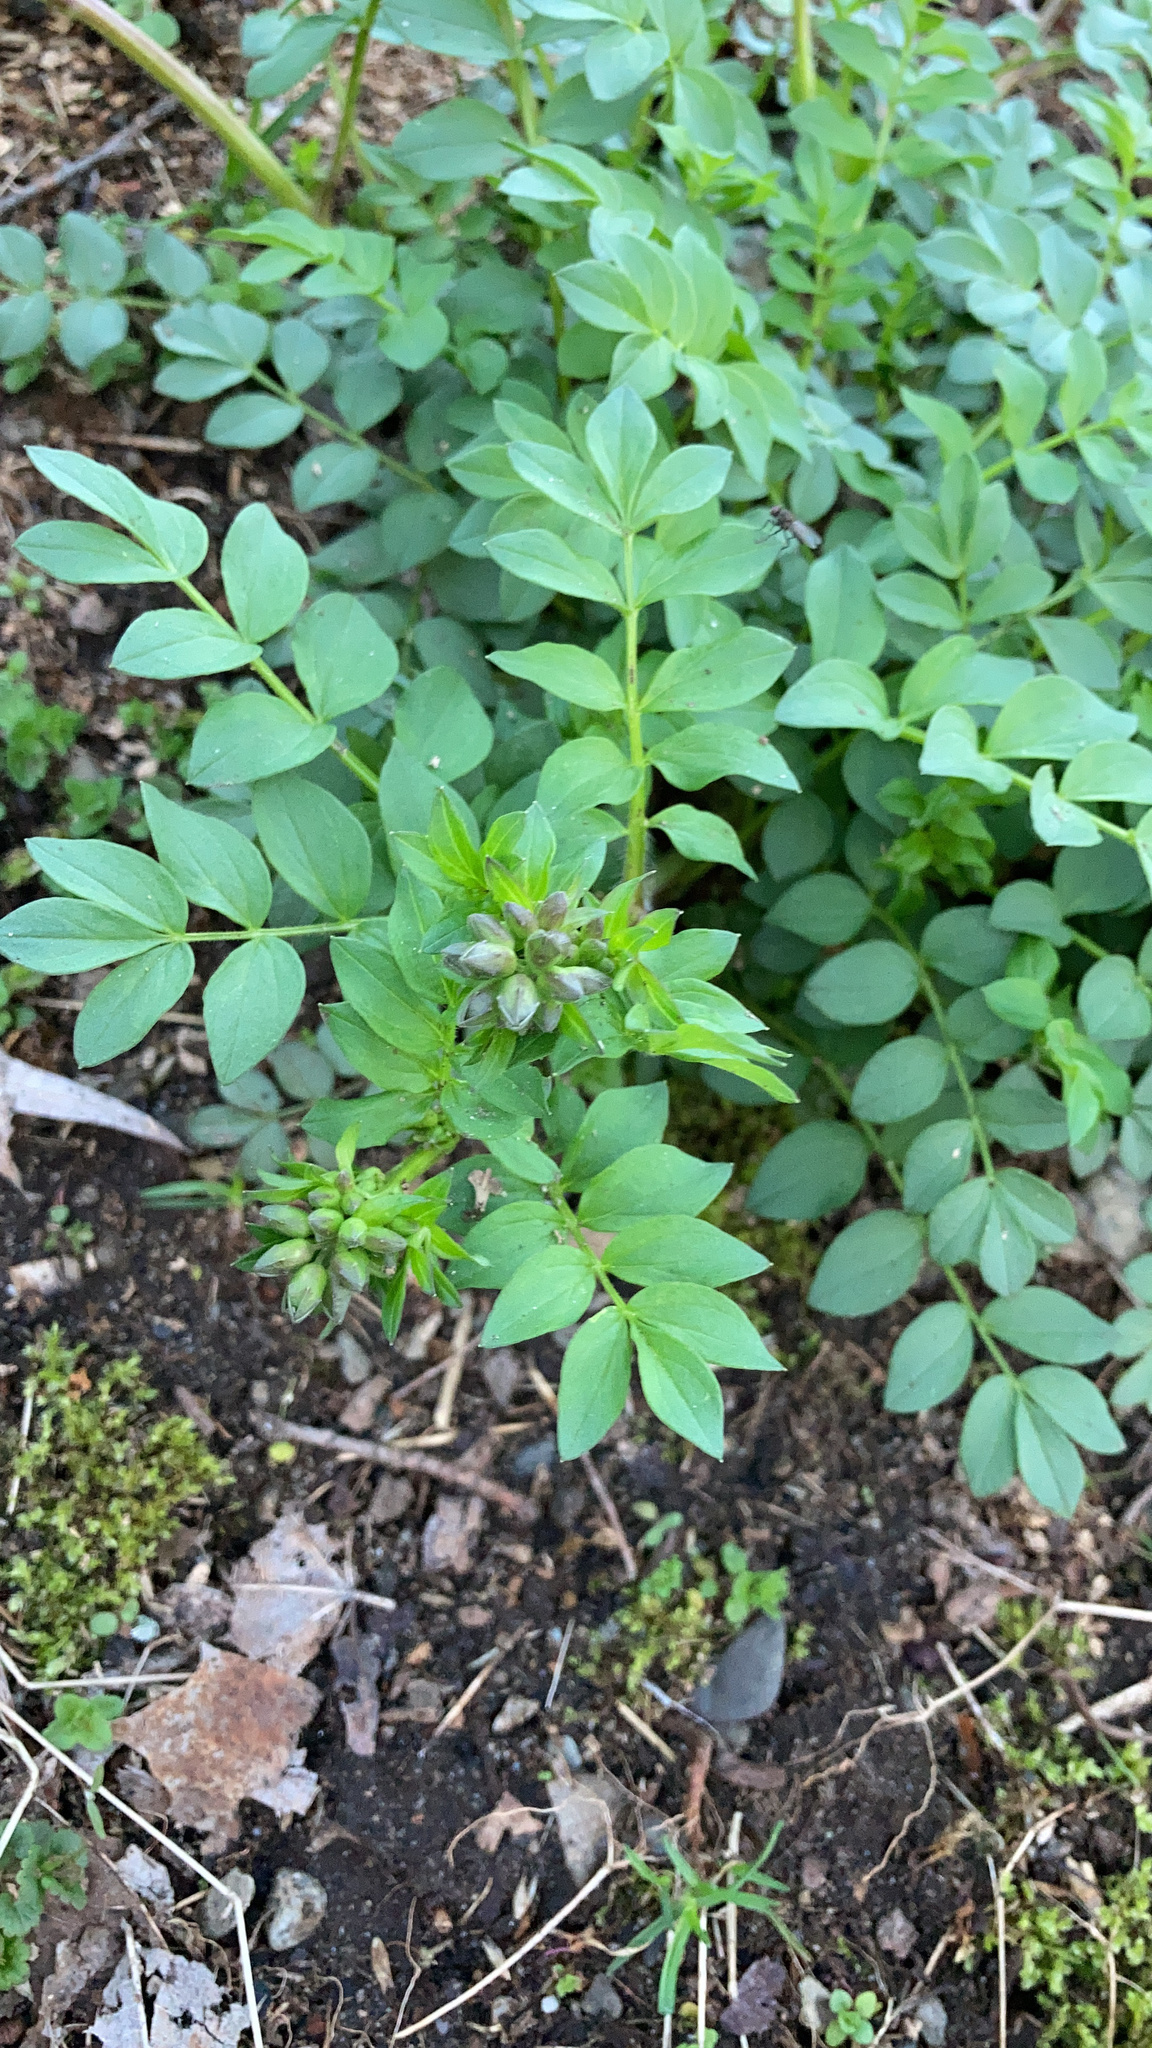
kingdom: Plantae
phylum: Tracheophyta
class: Magnoliopsida
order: Ericales
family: Polemoniaceae
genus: Polemonium
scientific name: Polemonium reptans
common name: Creeping jacob's-ladder
